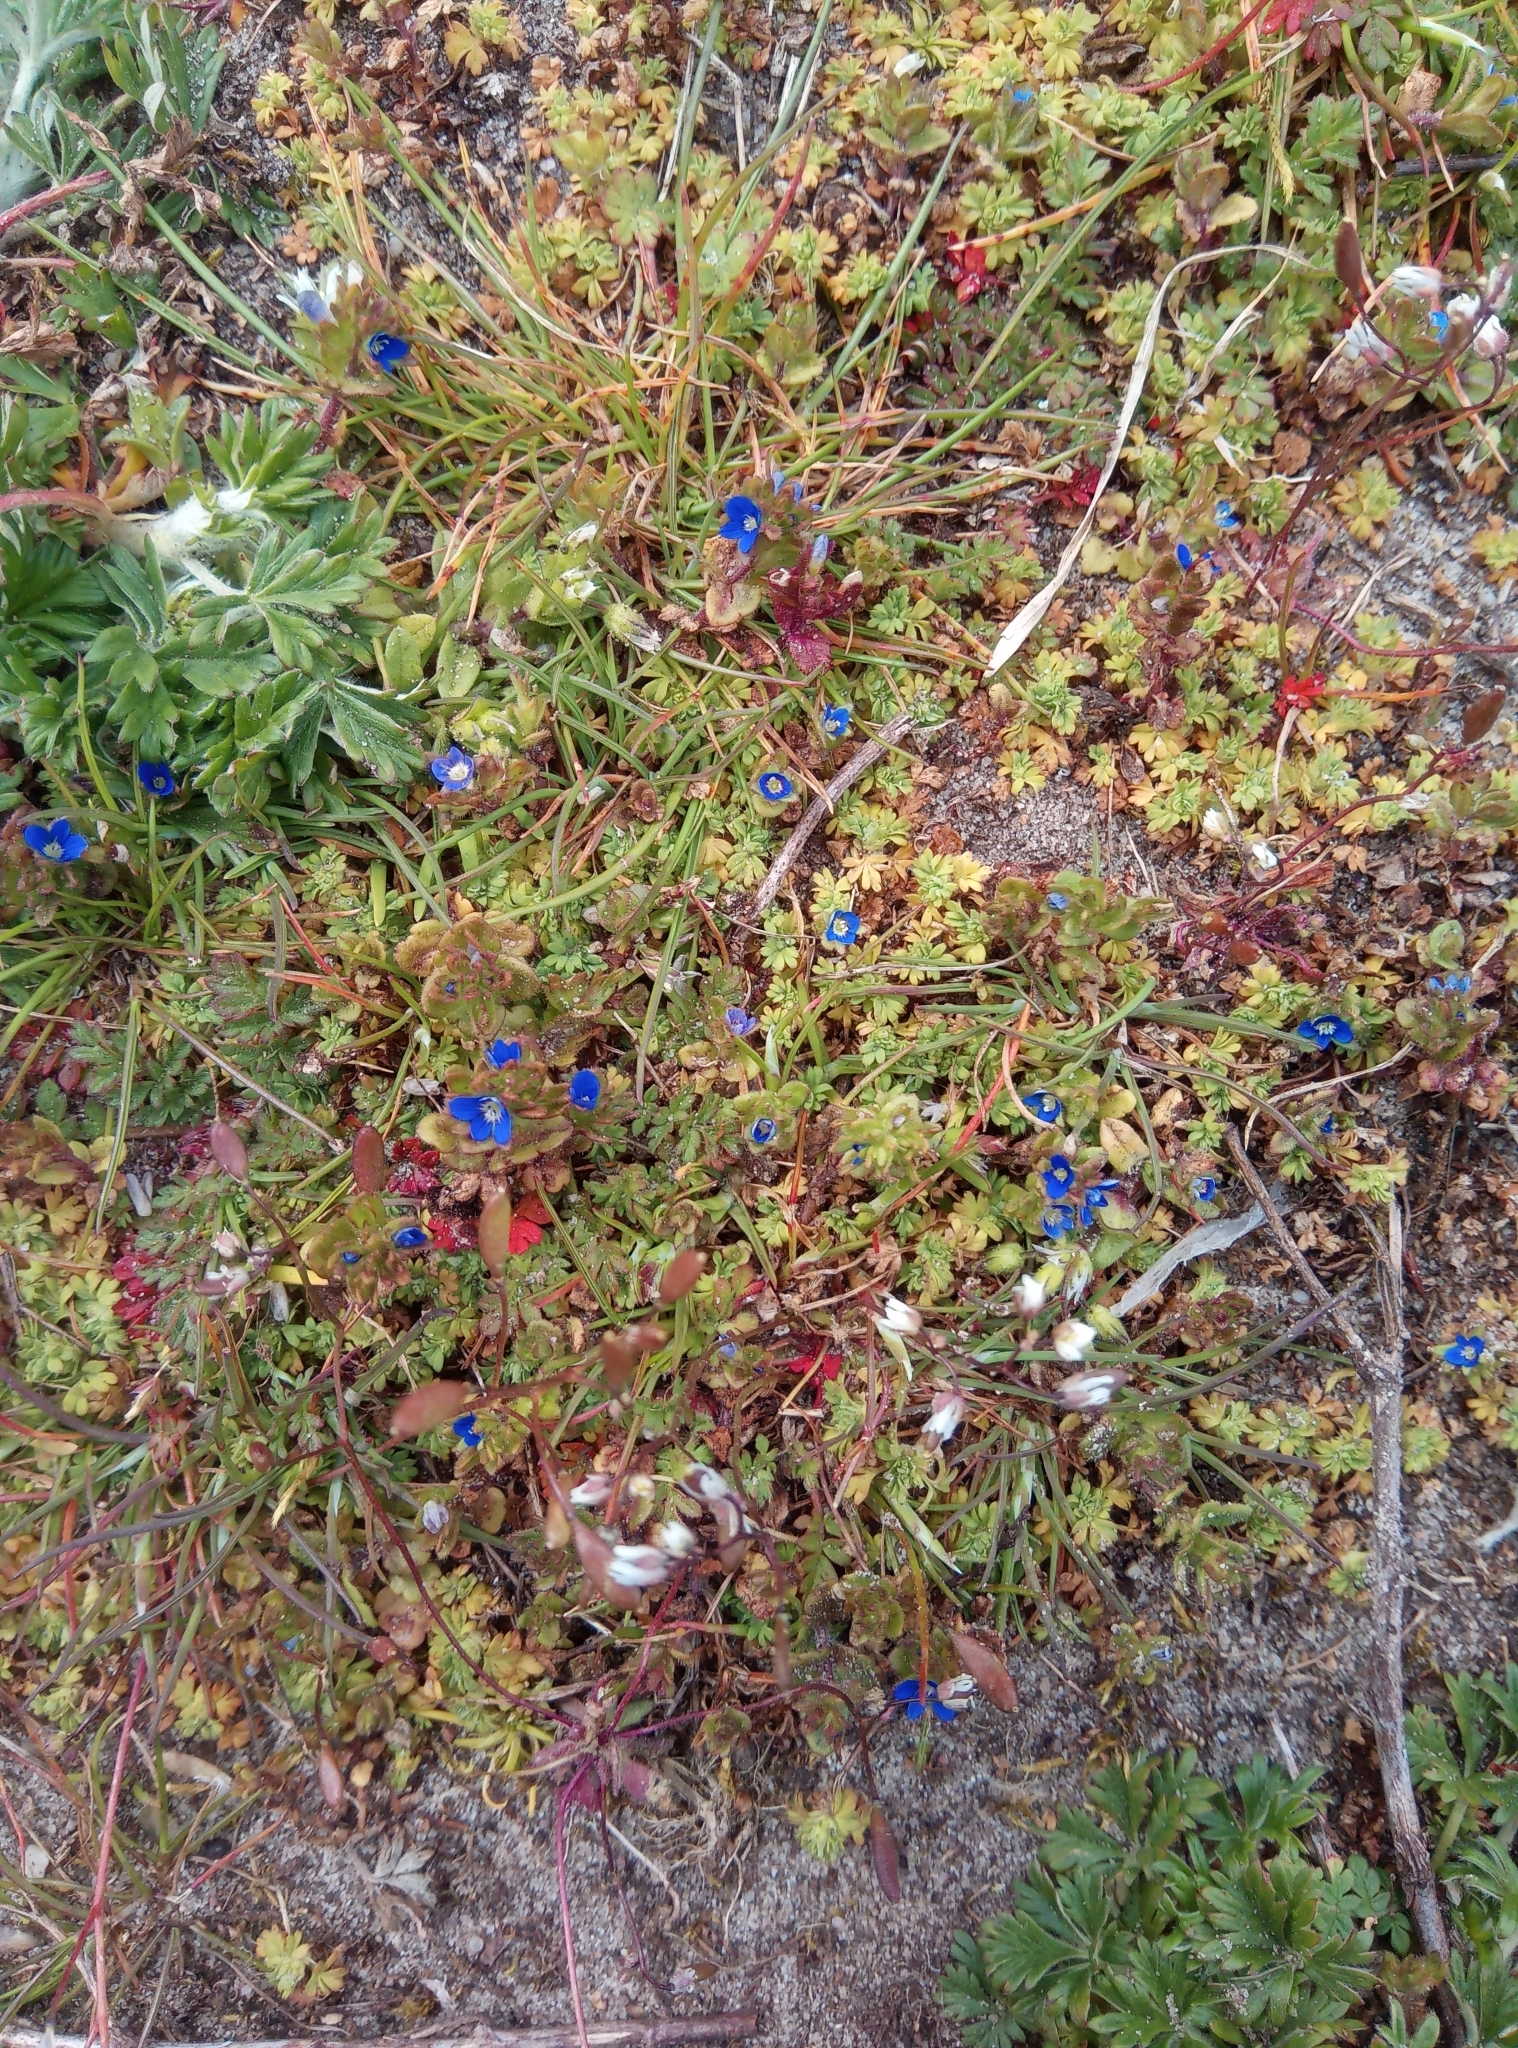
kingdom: Plantae
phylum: Tracheophyta
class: Magnoliopsida
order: Lamiales
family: Plantaginaceae
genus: Veronica
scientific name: Veronica arvensis
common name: Corn speedwell
